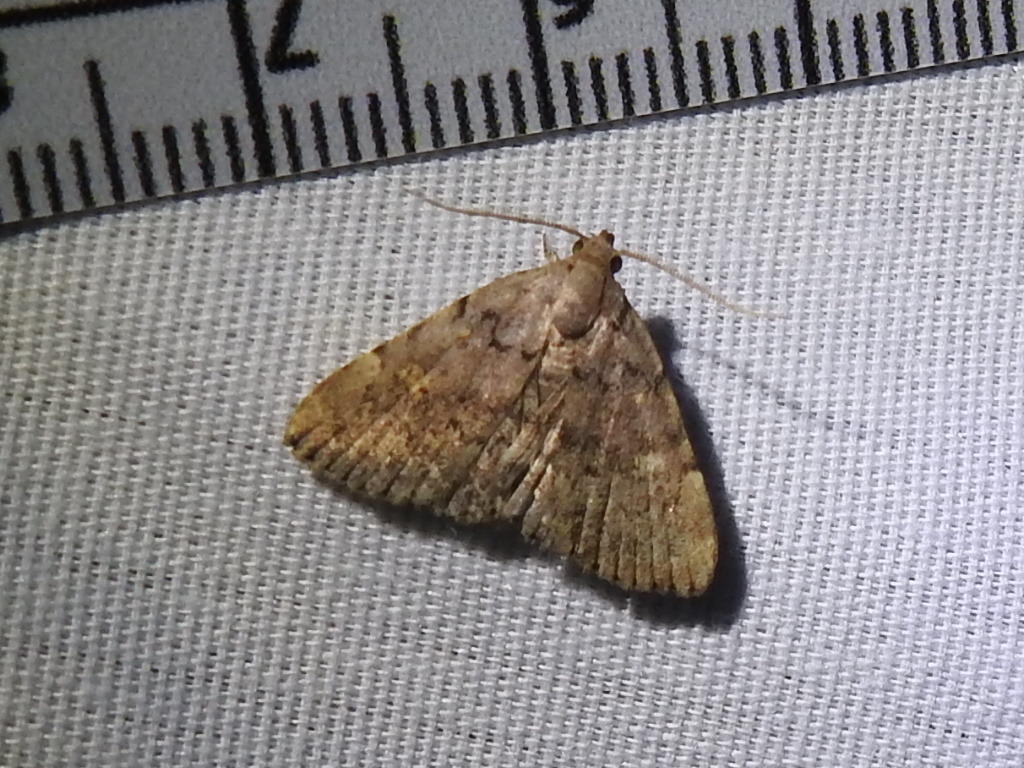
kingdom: Animalia
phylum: Arthropoda
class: Insecta
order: Lepidoptera
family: Erebidae
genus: Idia
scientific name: Idia aemula
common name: Common idia moth
